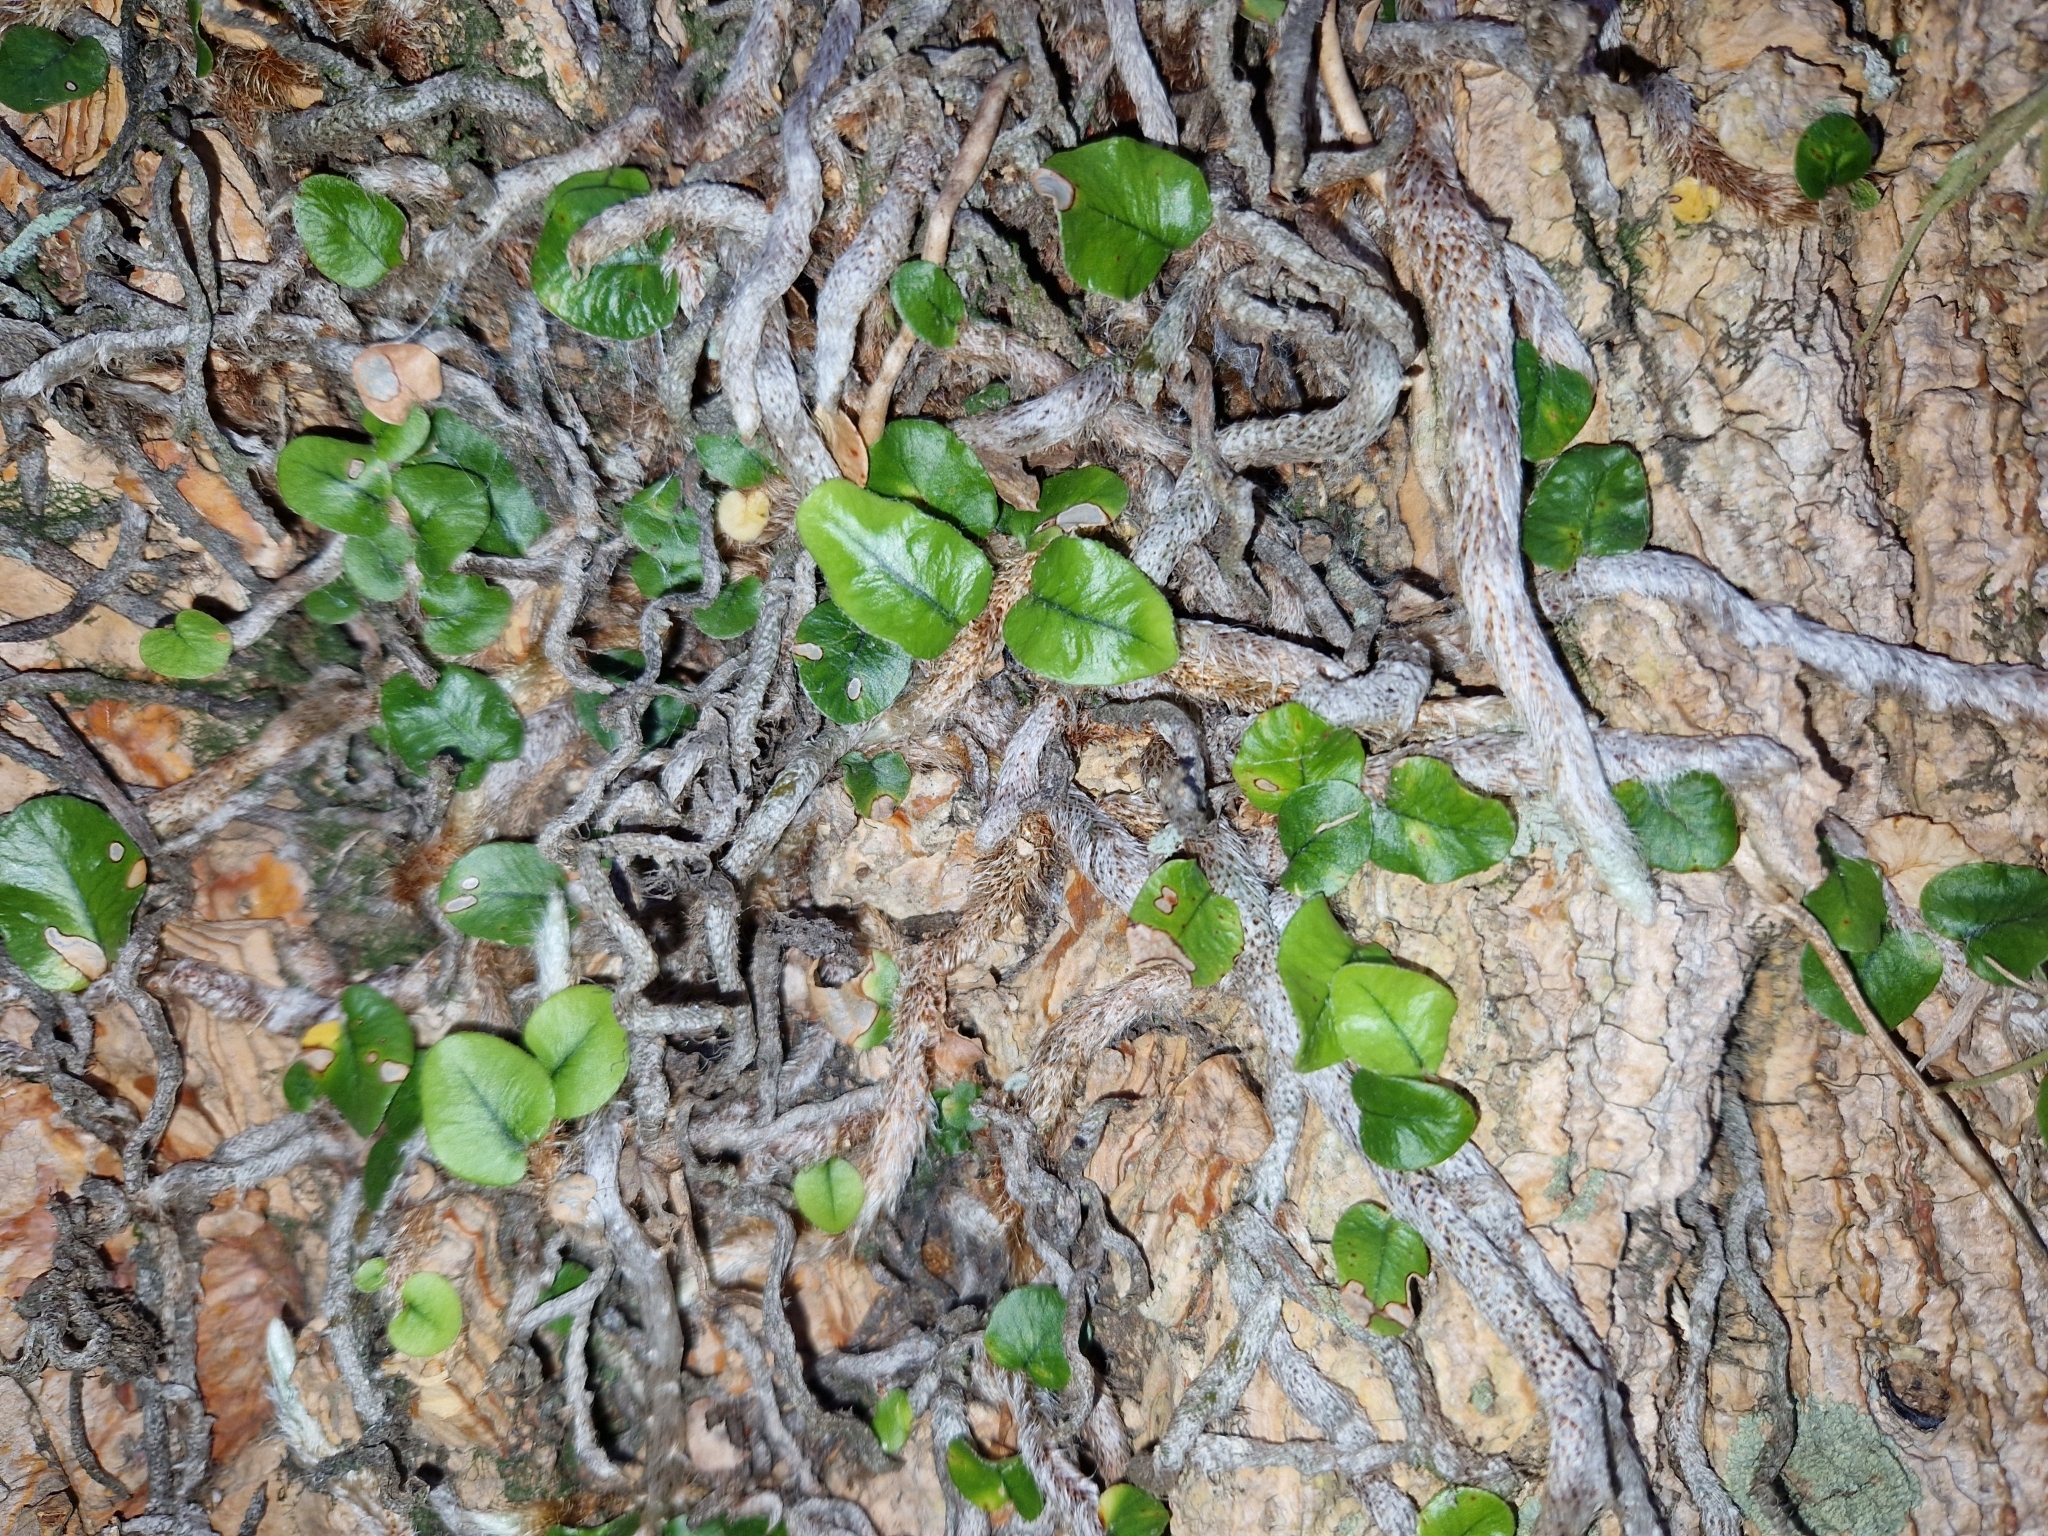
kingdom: Plantae
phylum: Tracheophyta
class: Polypodiopsida
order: Polypodiales
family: Polypodiaceae
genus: Microgramma
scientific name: Microgramma vaccinifolia
